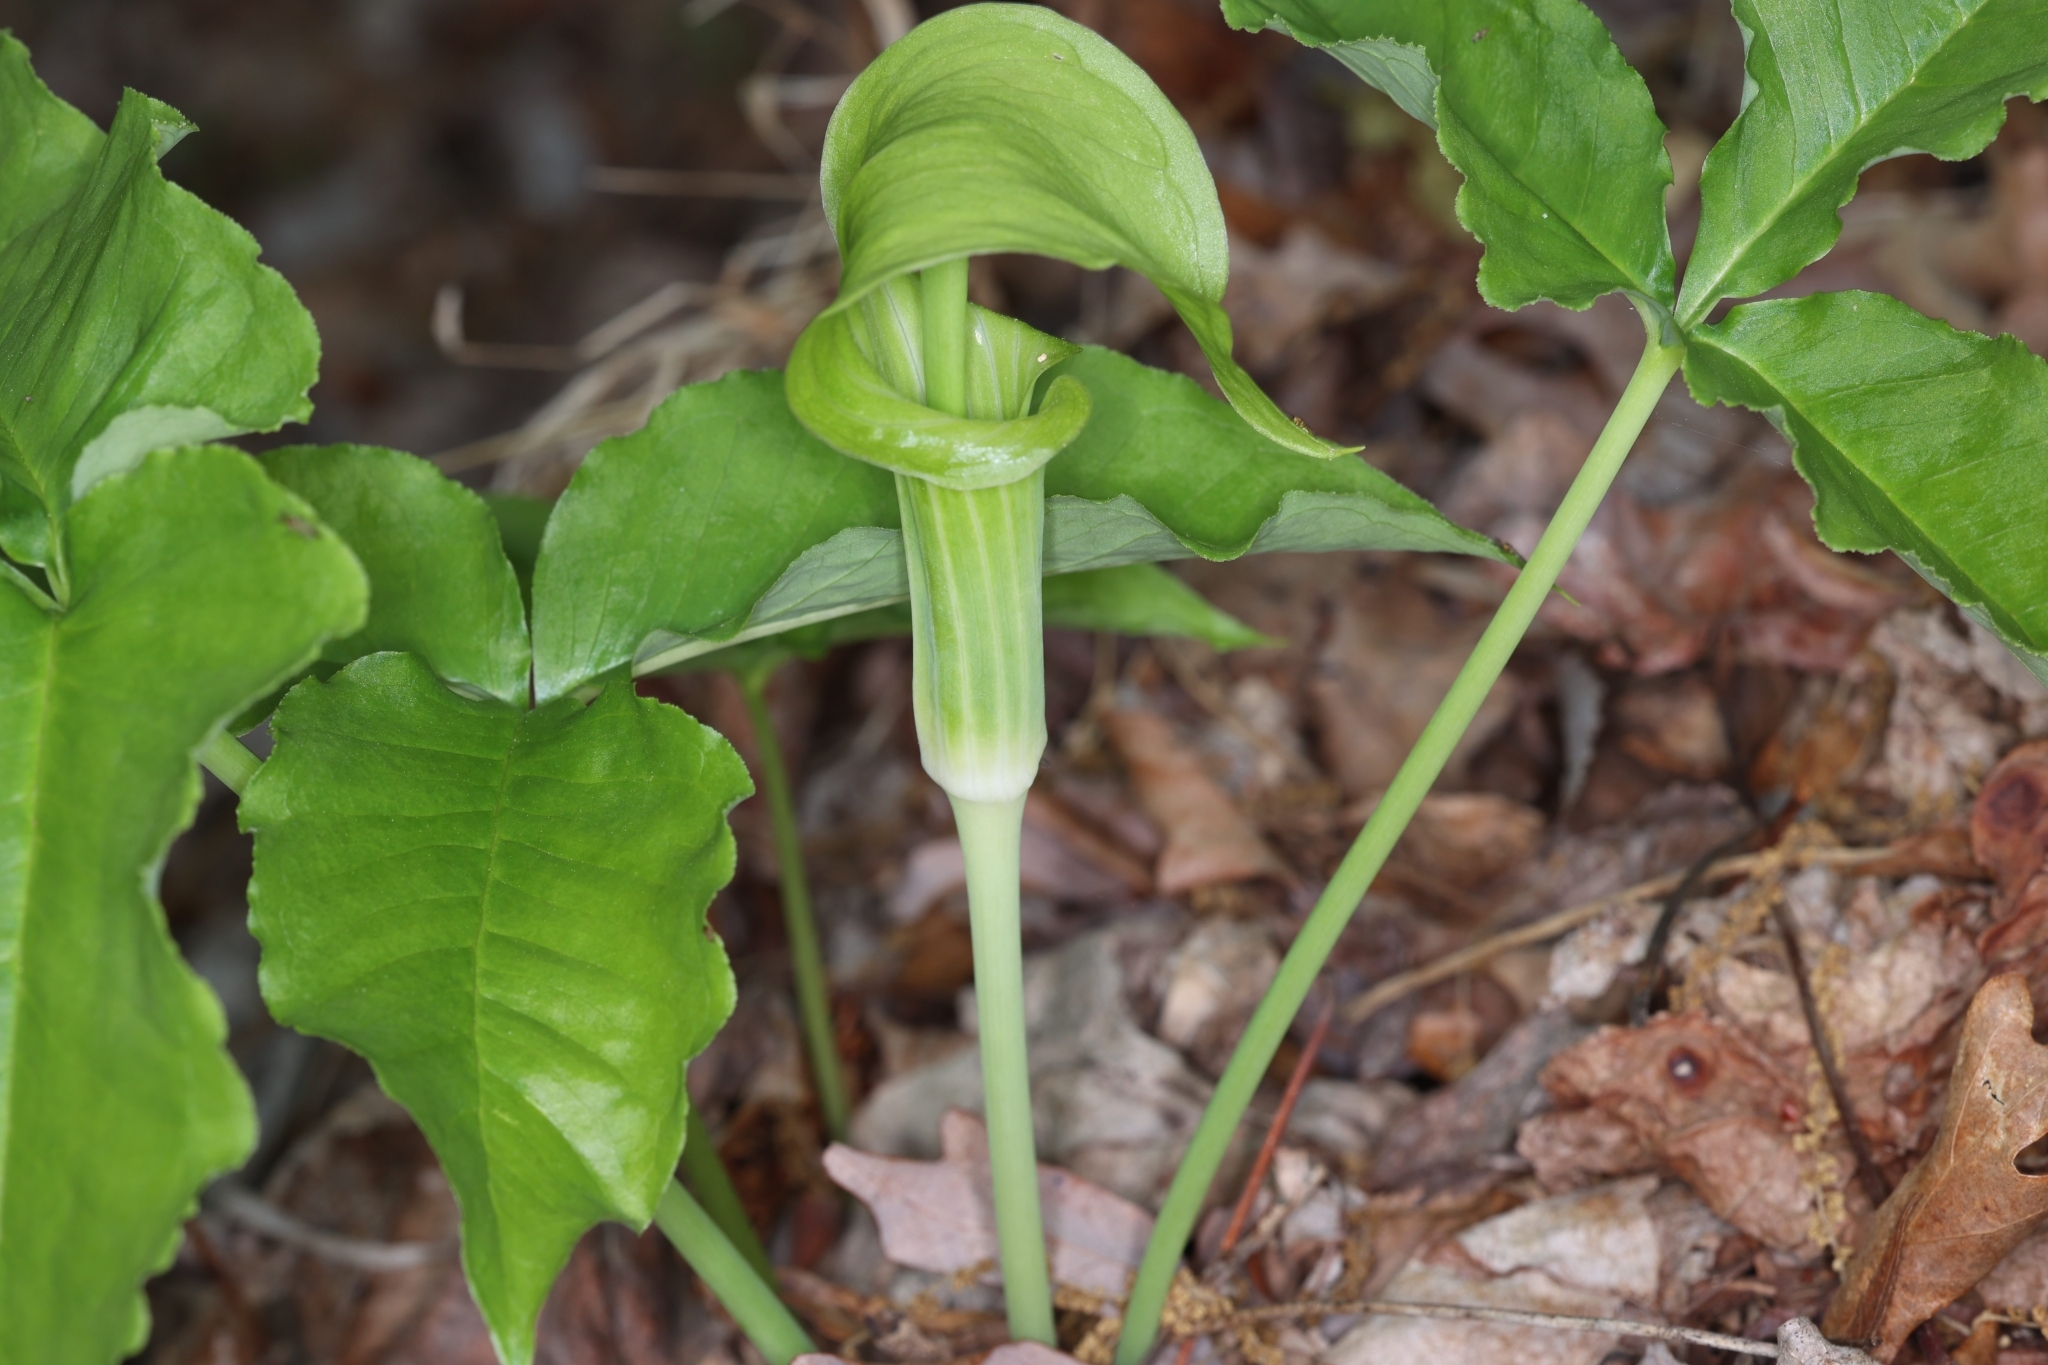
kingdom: Plantae
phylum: Tracheophyta
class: Liliopsida
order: Alismatales
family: Araceae
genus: Arisaema
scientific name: Arisaema triphyllum
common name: Jack-in-the-pulpit
